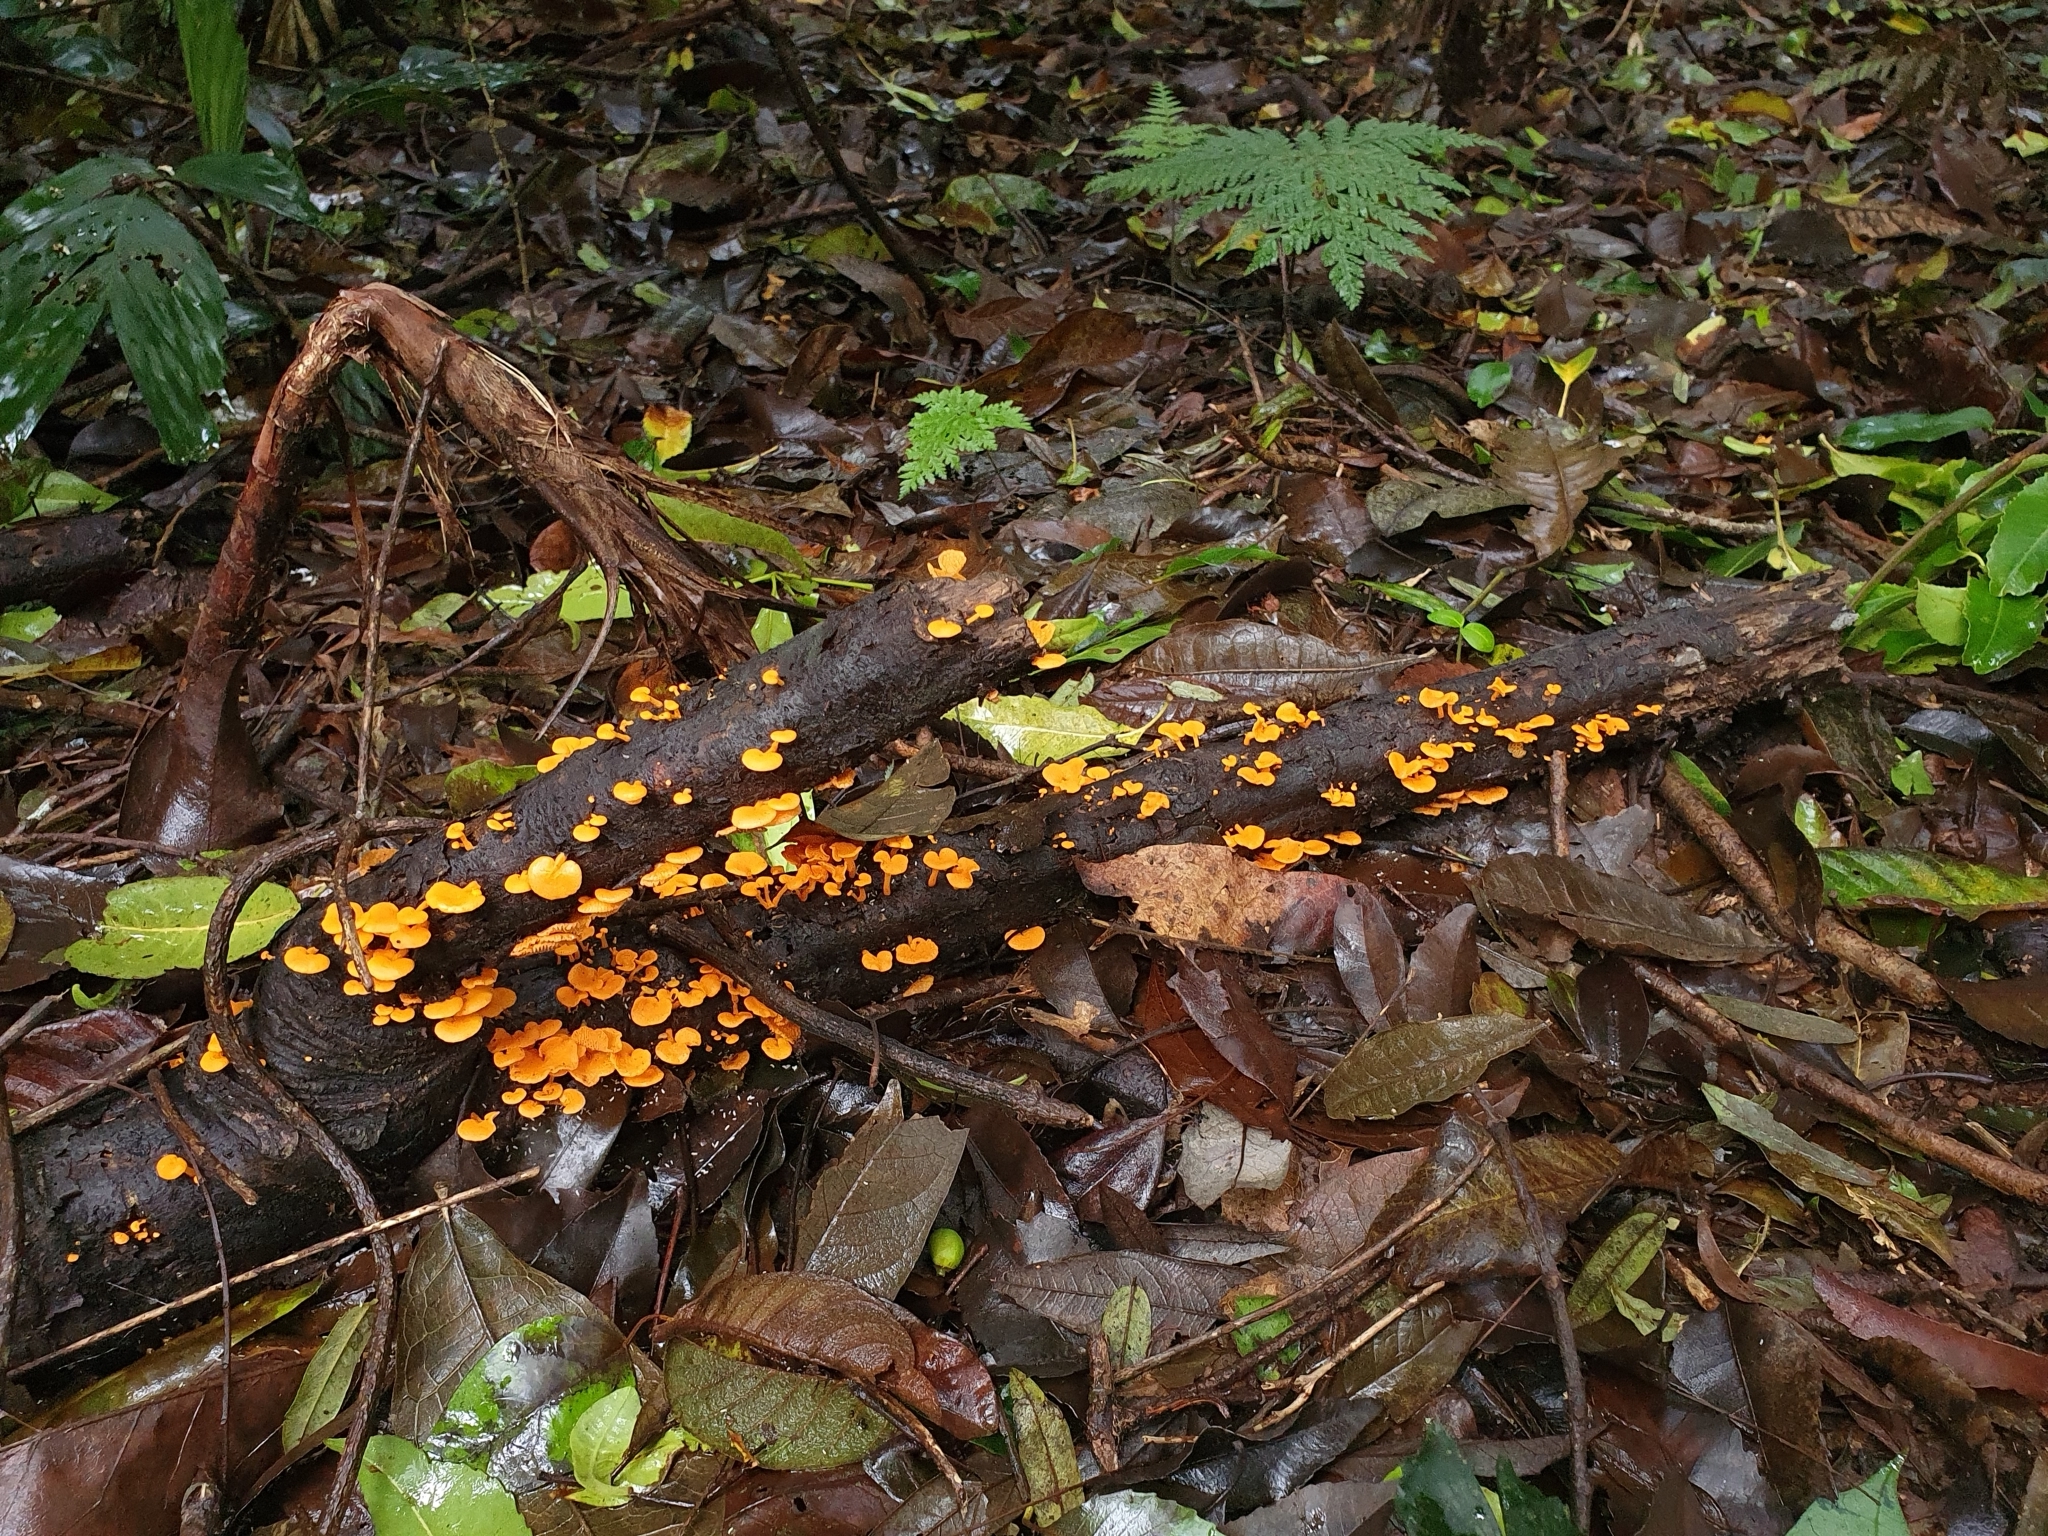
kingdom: Fungi
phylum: Basidiomycota
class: Agaricomycetes
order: Agaricales
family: Mycenaceae
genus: Favolaschia
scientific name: Favolaschia claudopus
